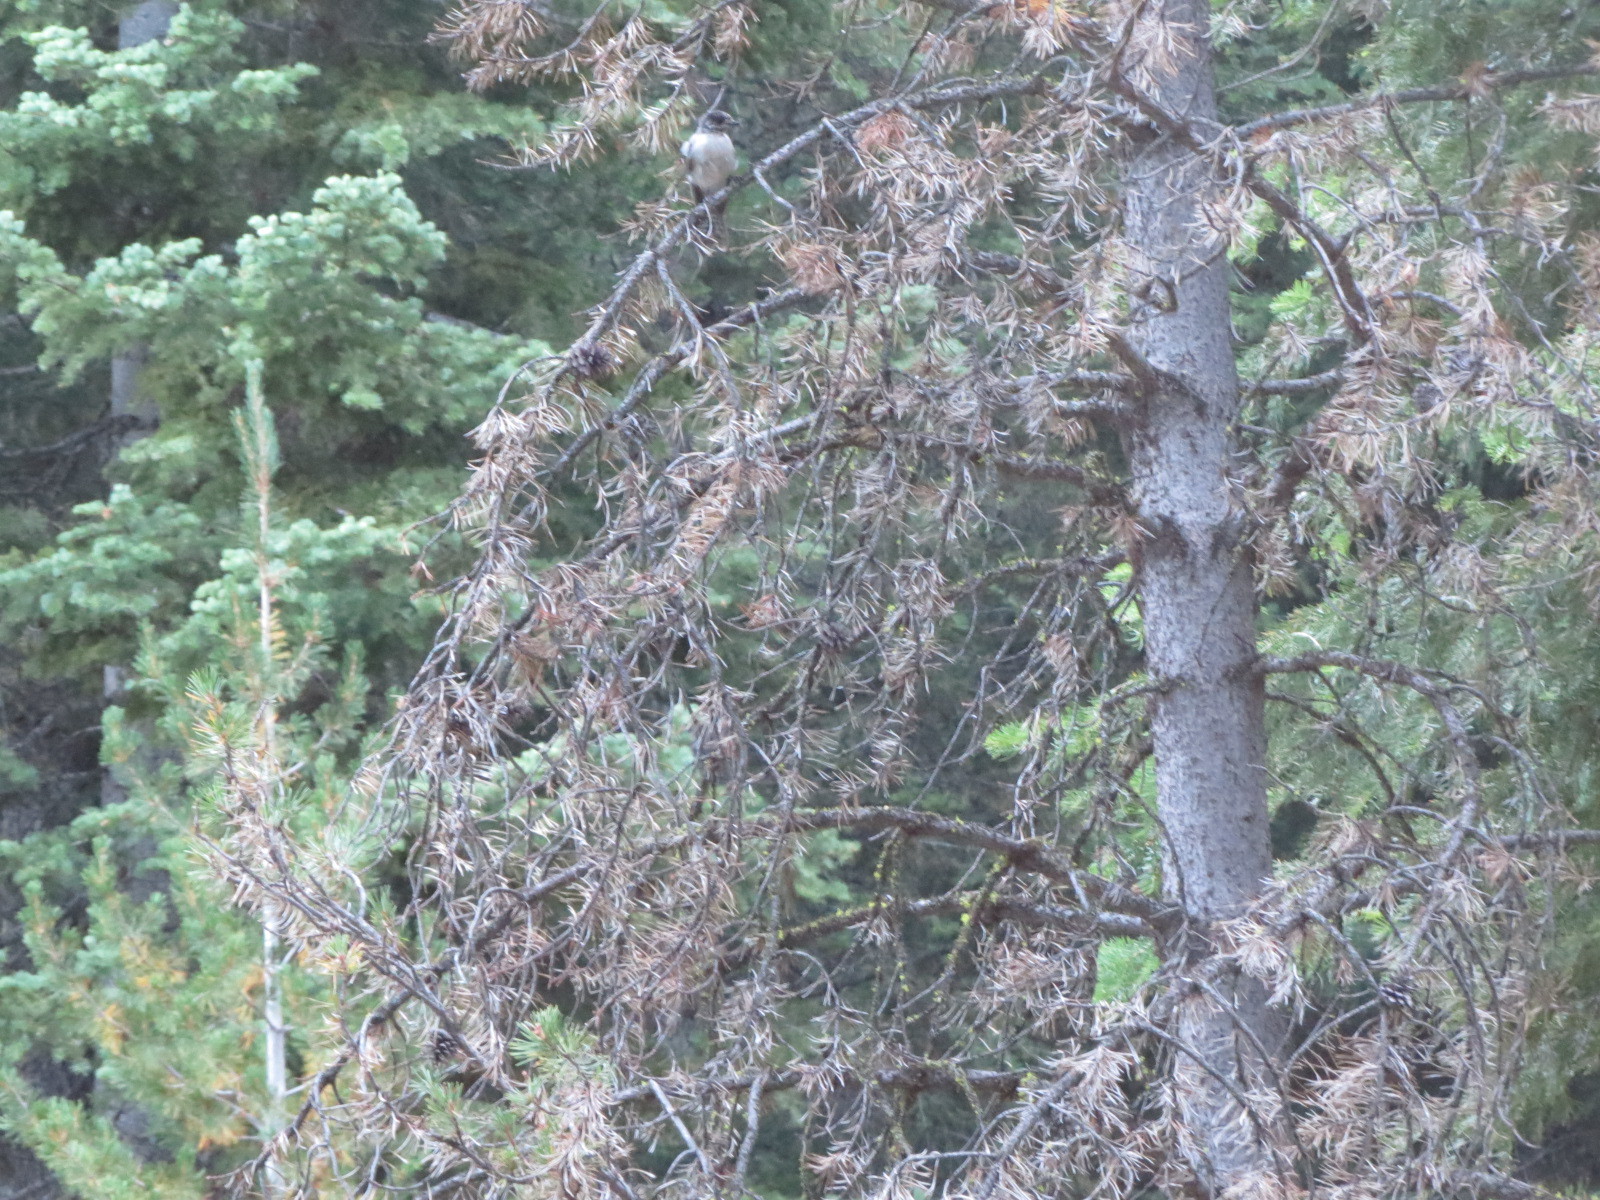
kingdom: Animalia
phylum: Chordata
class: Aves
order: Passeriformes
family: Corvidae
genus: Perisoreus
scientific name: Perisoreus canadensis
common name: Gray jay
